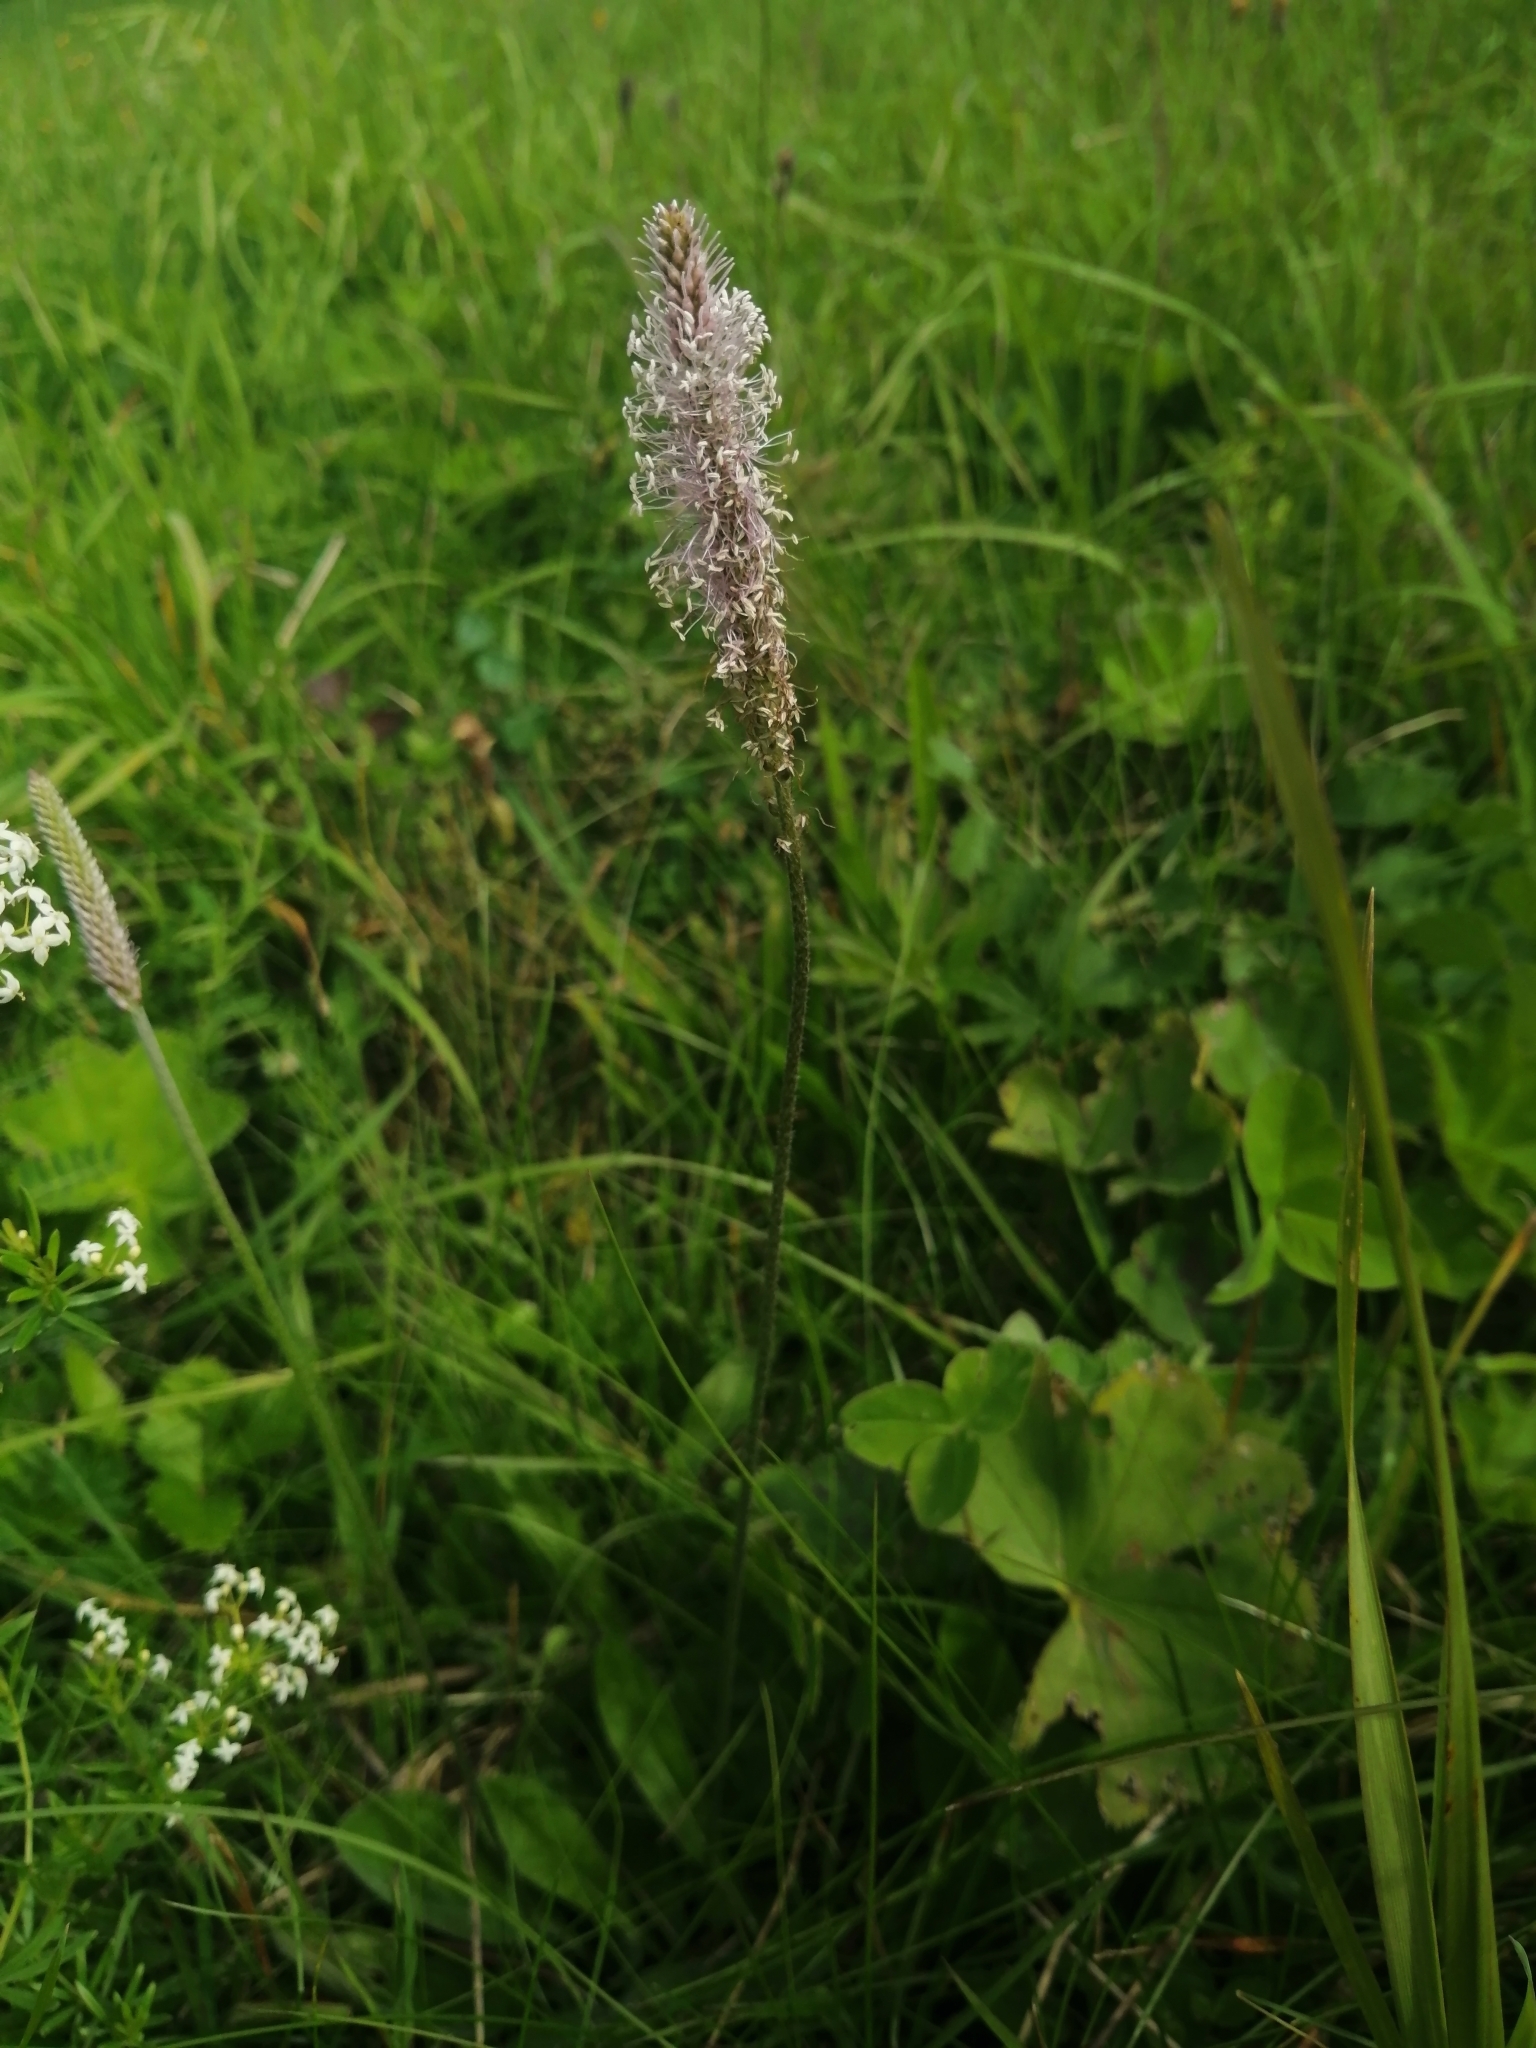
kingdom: Plantae
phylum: Tracheophyta
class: Magnoliopsida
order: Lamiales
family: Plantaginaceae
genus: Plantago
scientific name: Plantago media
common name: Hoary plantain
